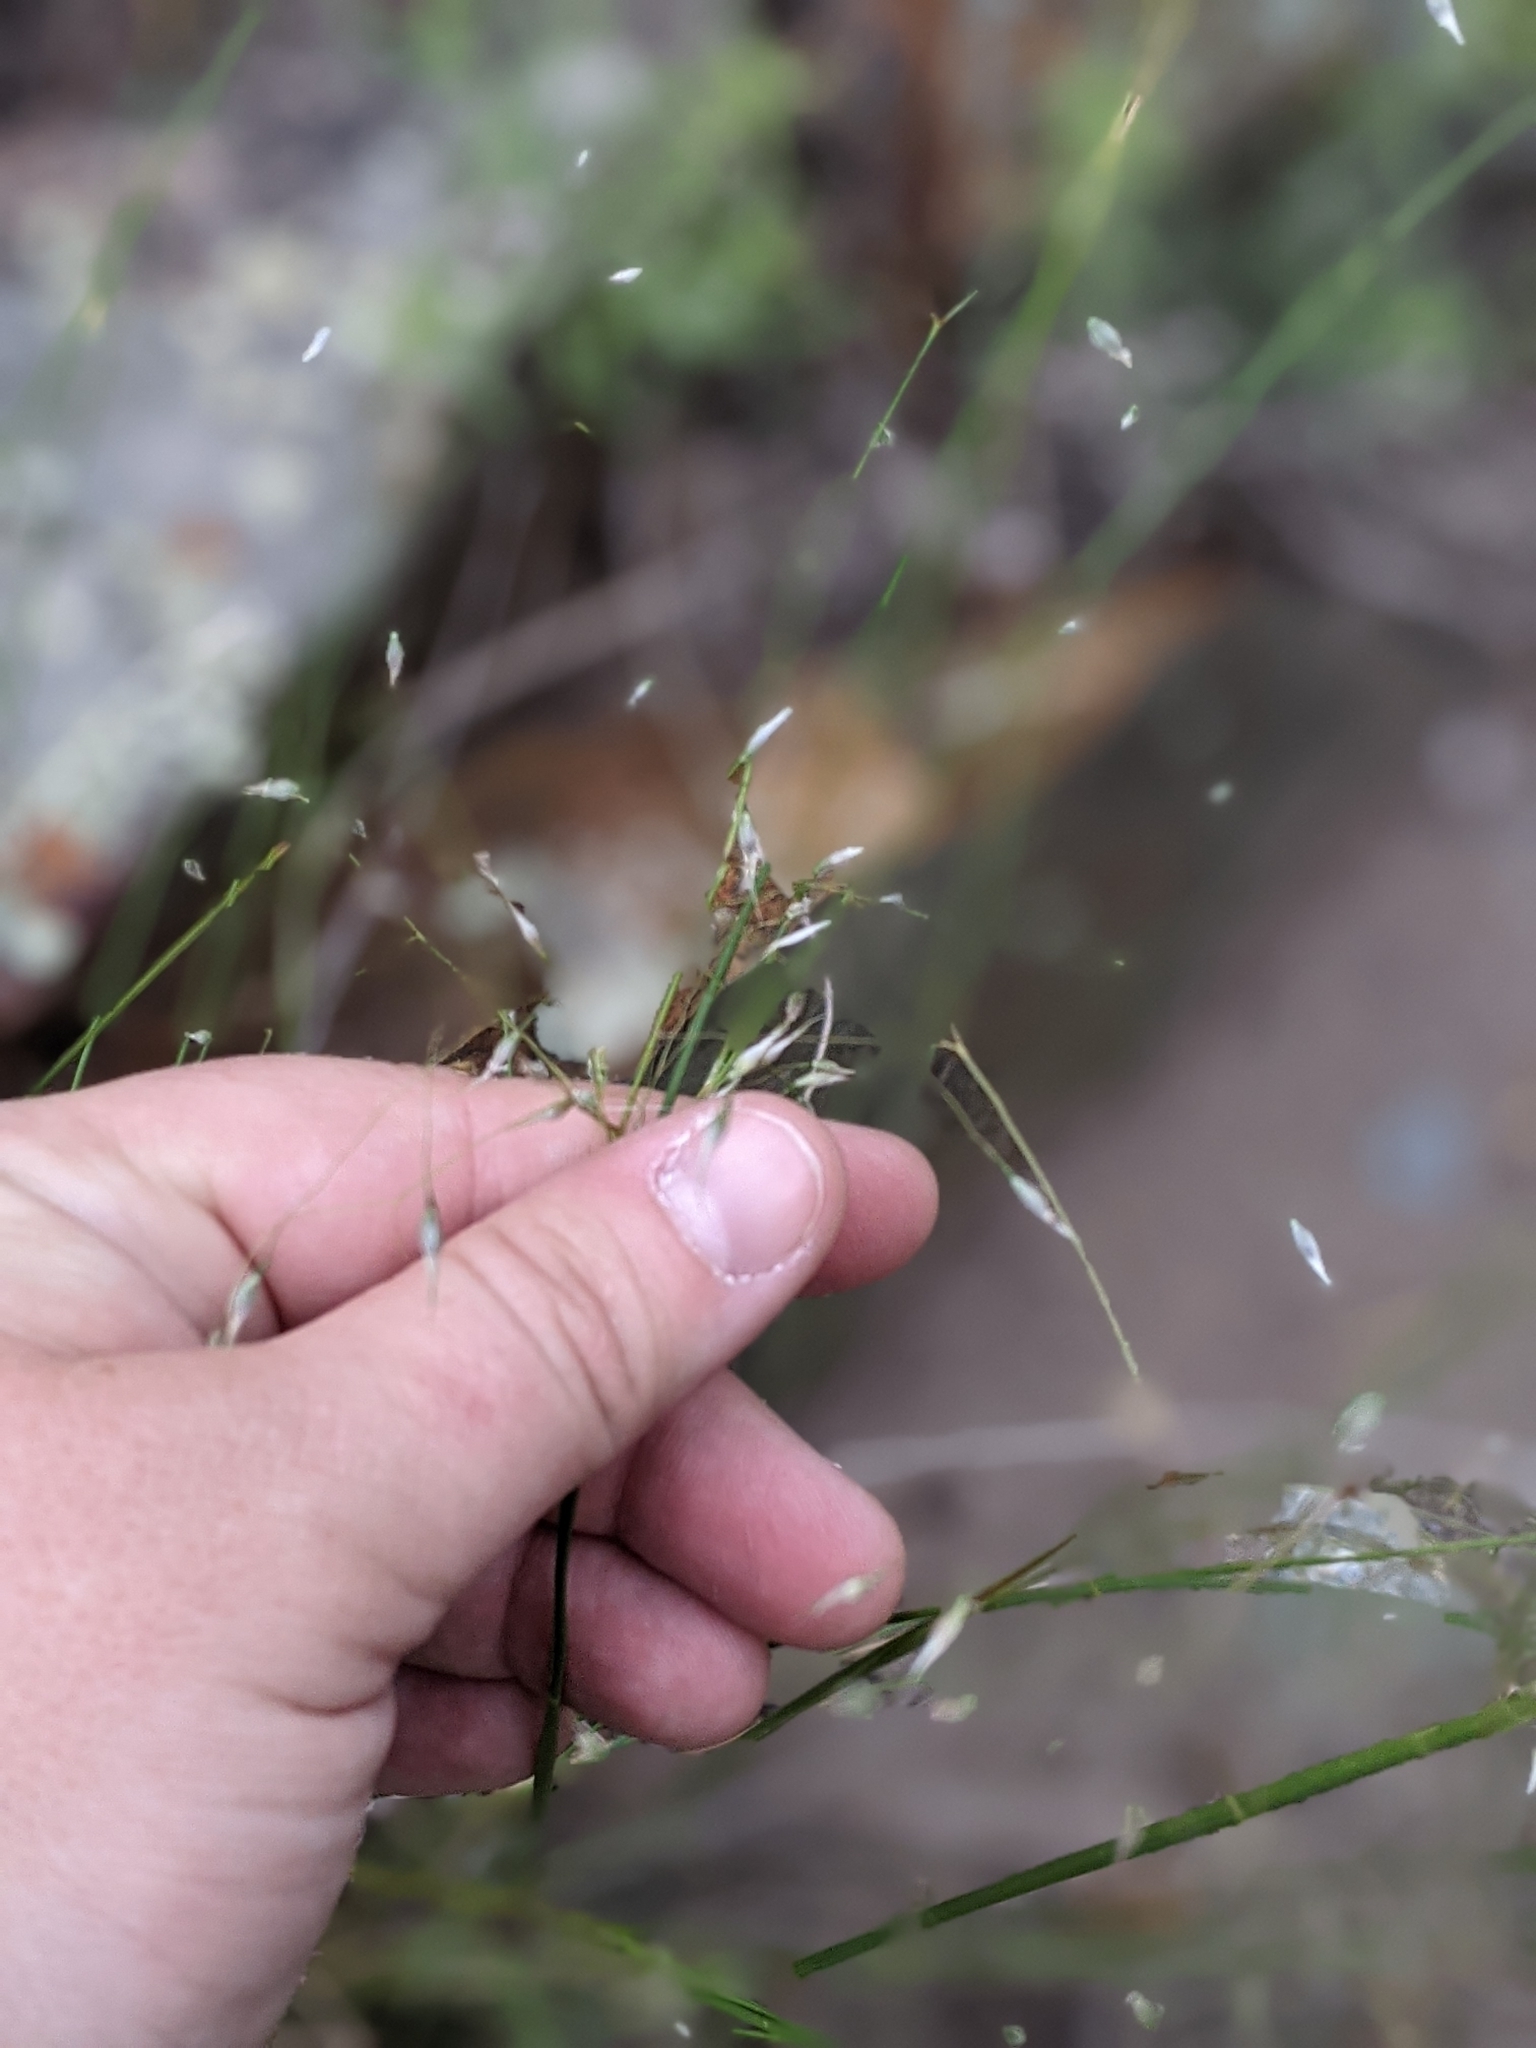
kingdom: Plantae
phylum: Tracheophyta
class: Liliopsida
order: Poales
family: Poaceae
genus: Eriocoma
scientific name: Eriocoma hymenoides
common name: Indian mountain ricegrass
